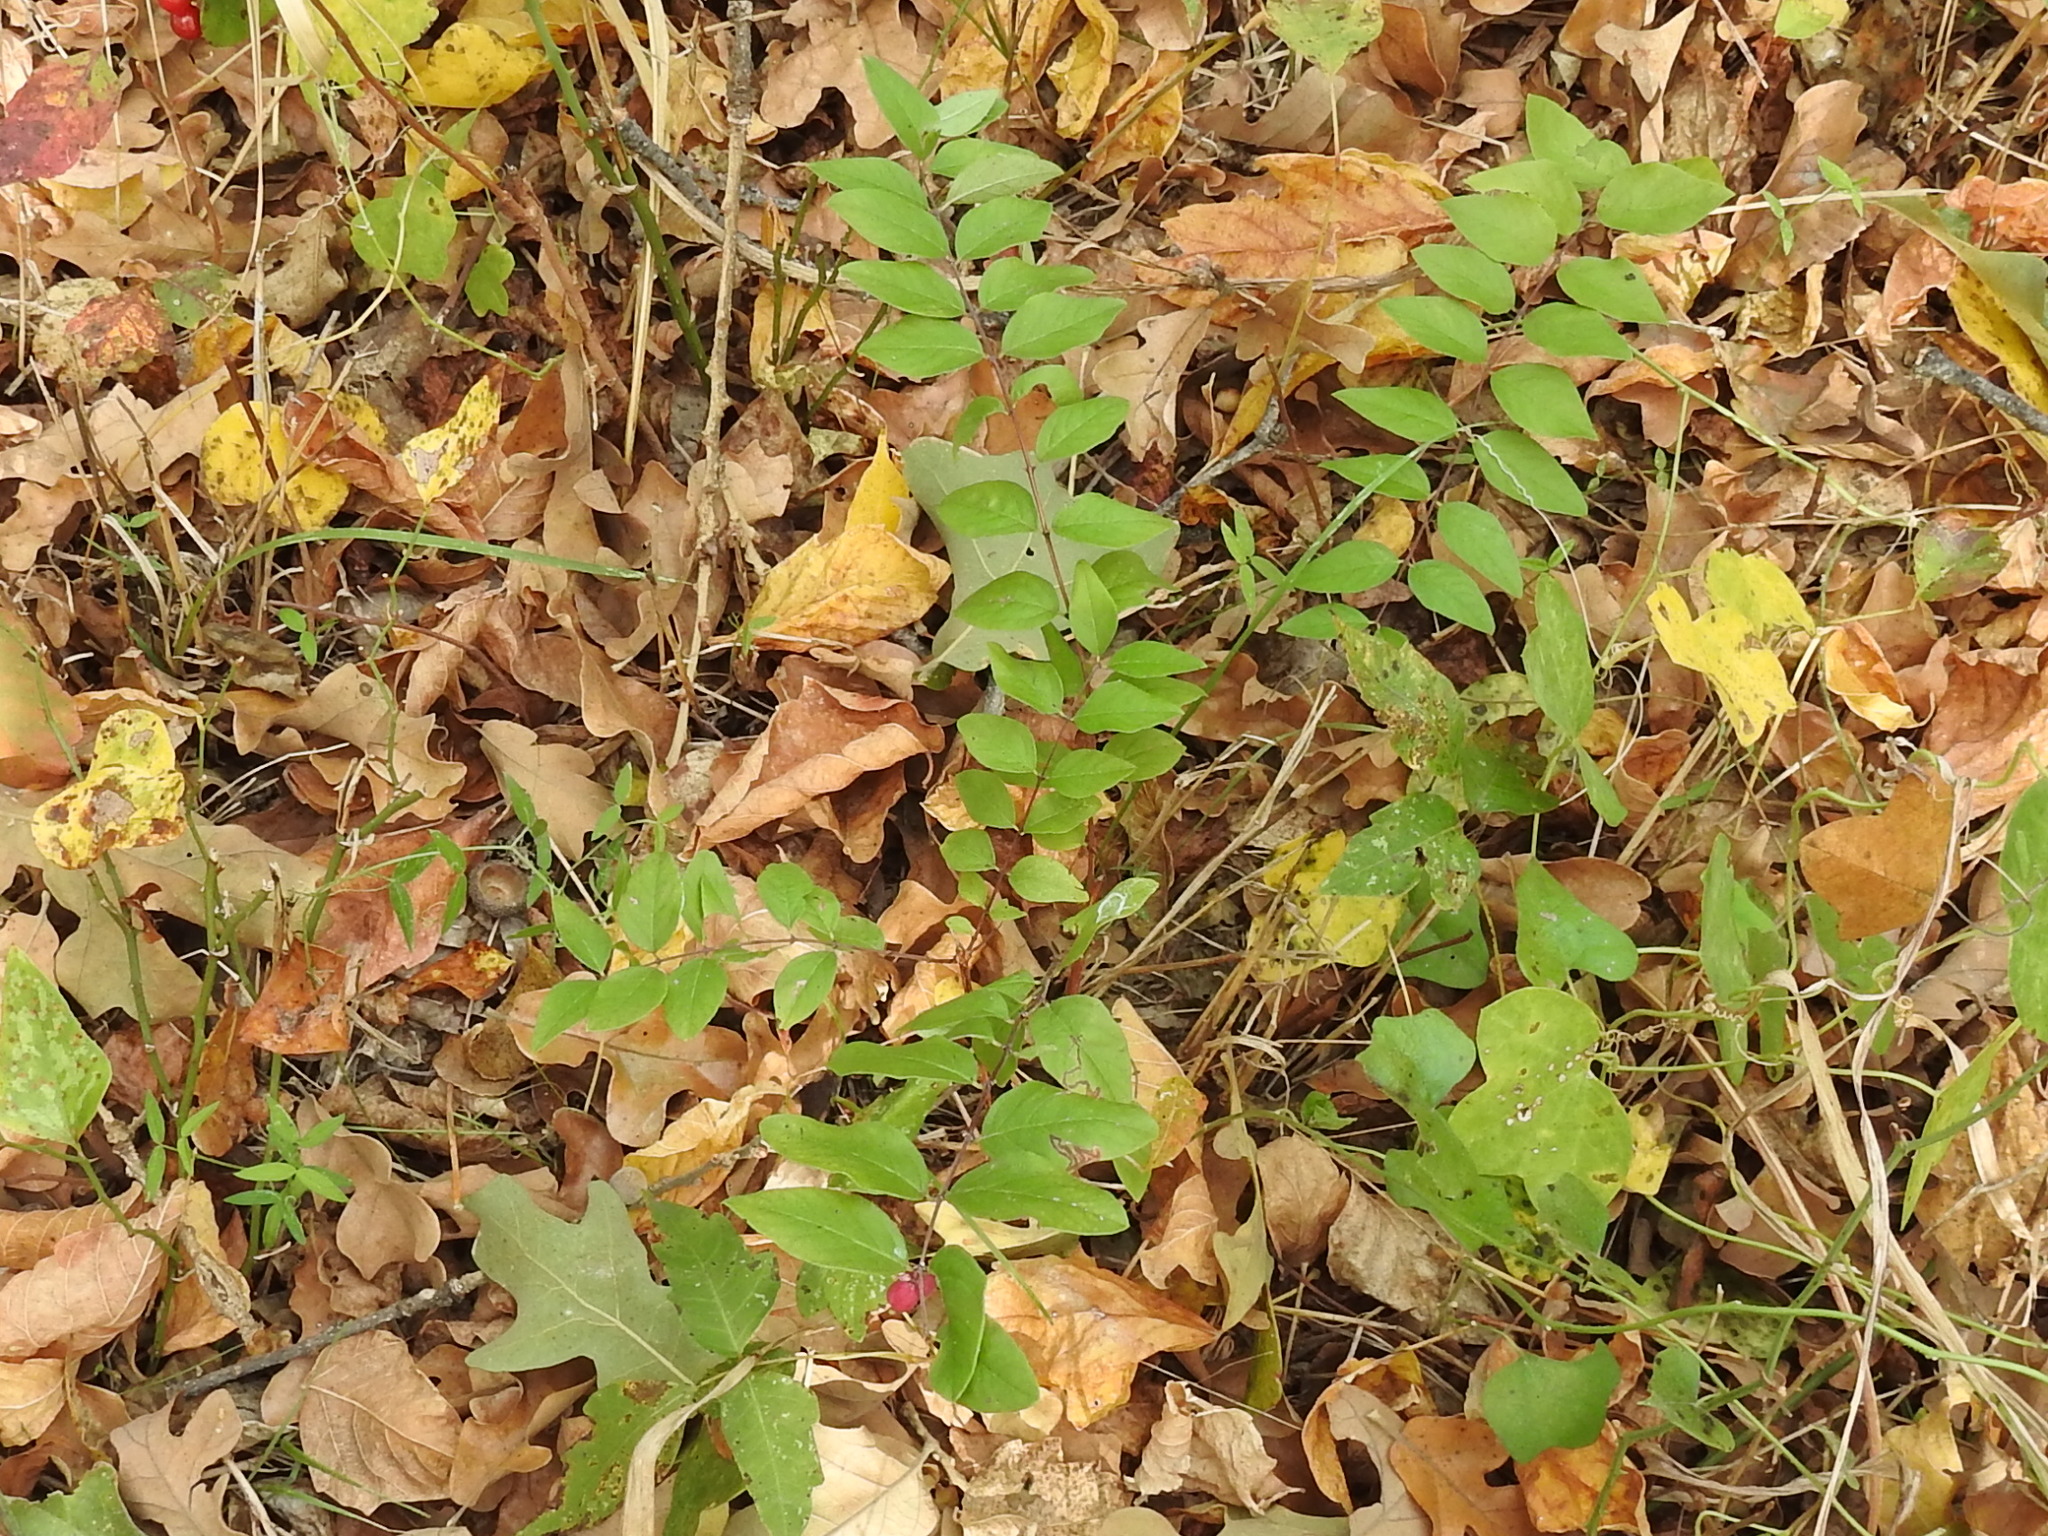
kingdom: Plantae
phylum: Tracheophyta
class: Magnoliopsida
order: Dipsacales
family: Caprifoliaceae
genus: Symphoricarpos
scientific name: Symphoricarpos orbiculatus
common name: Coralberry
